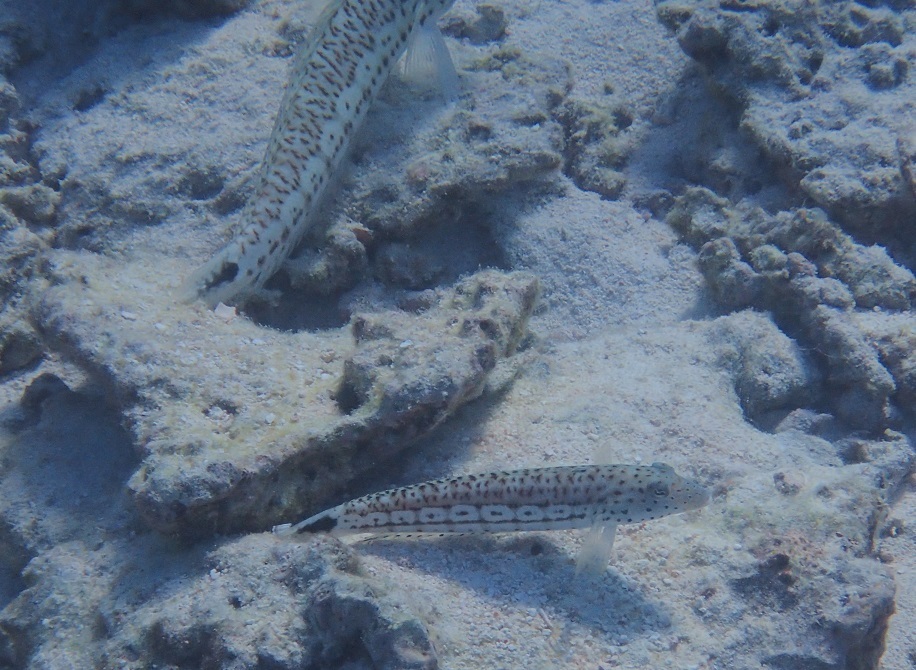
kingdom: Animalia
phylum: Chordata
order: Perciformes
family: Pinguipedidae
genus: Parapercis
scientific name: Parapercis queenslandica
